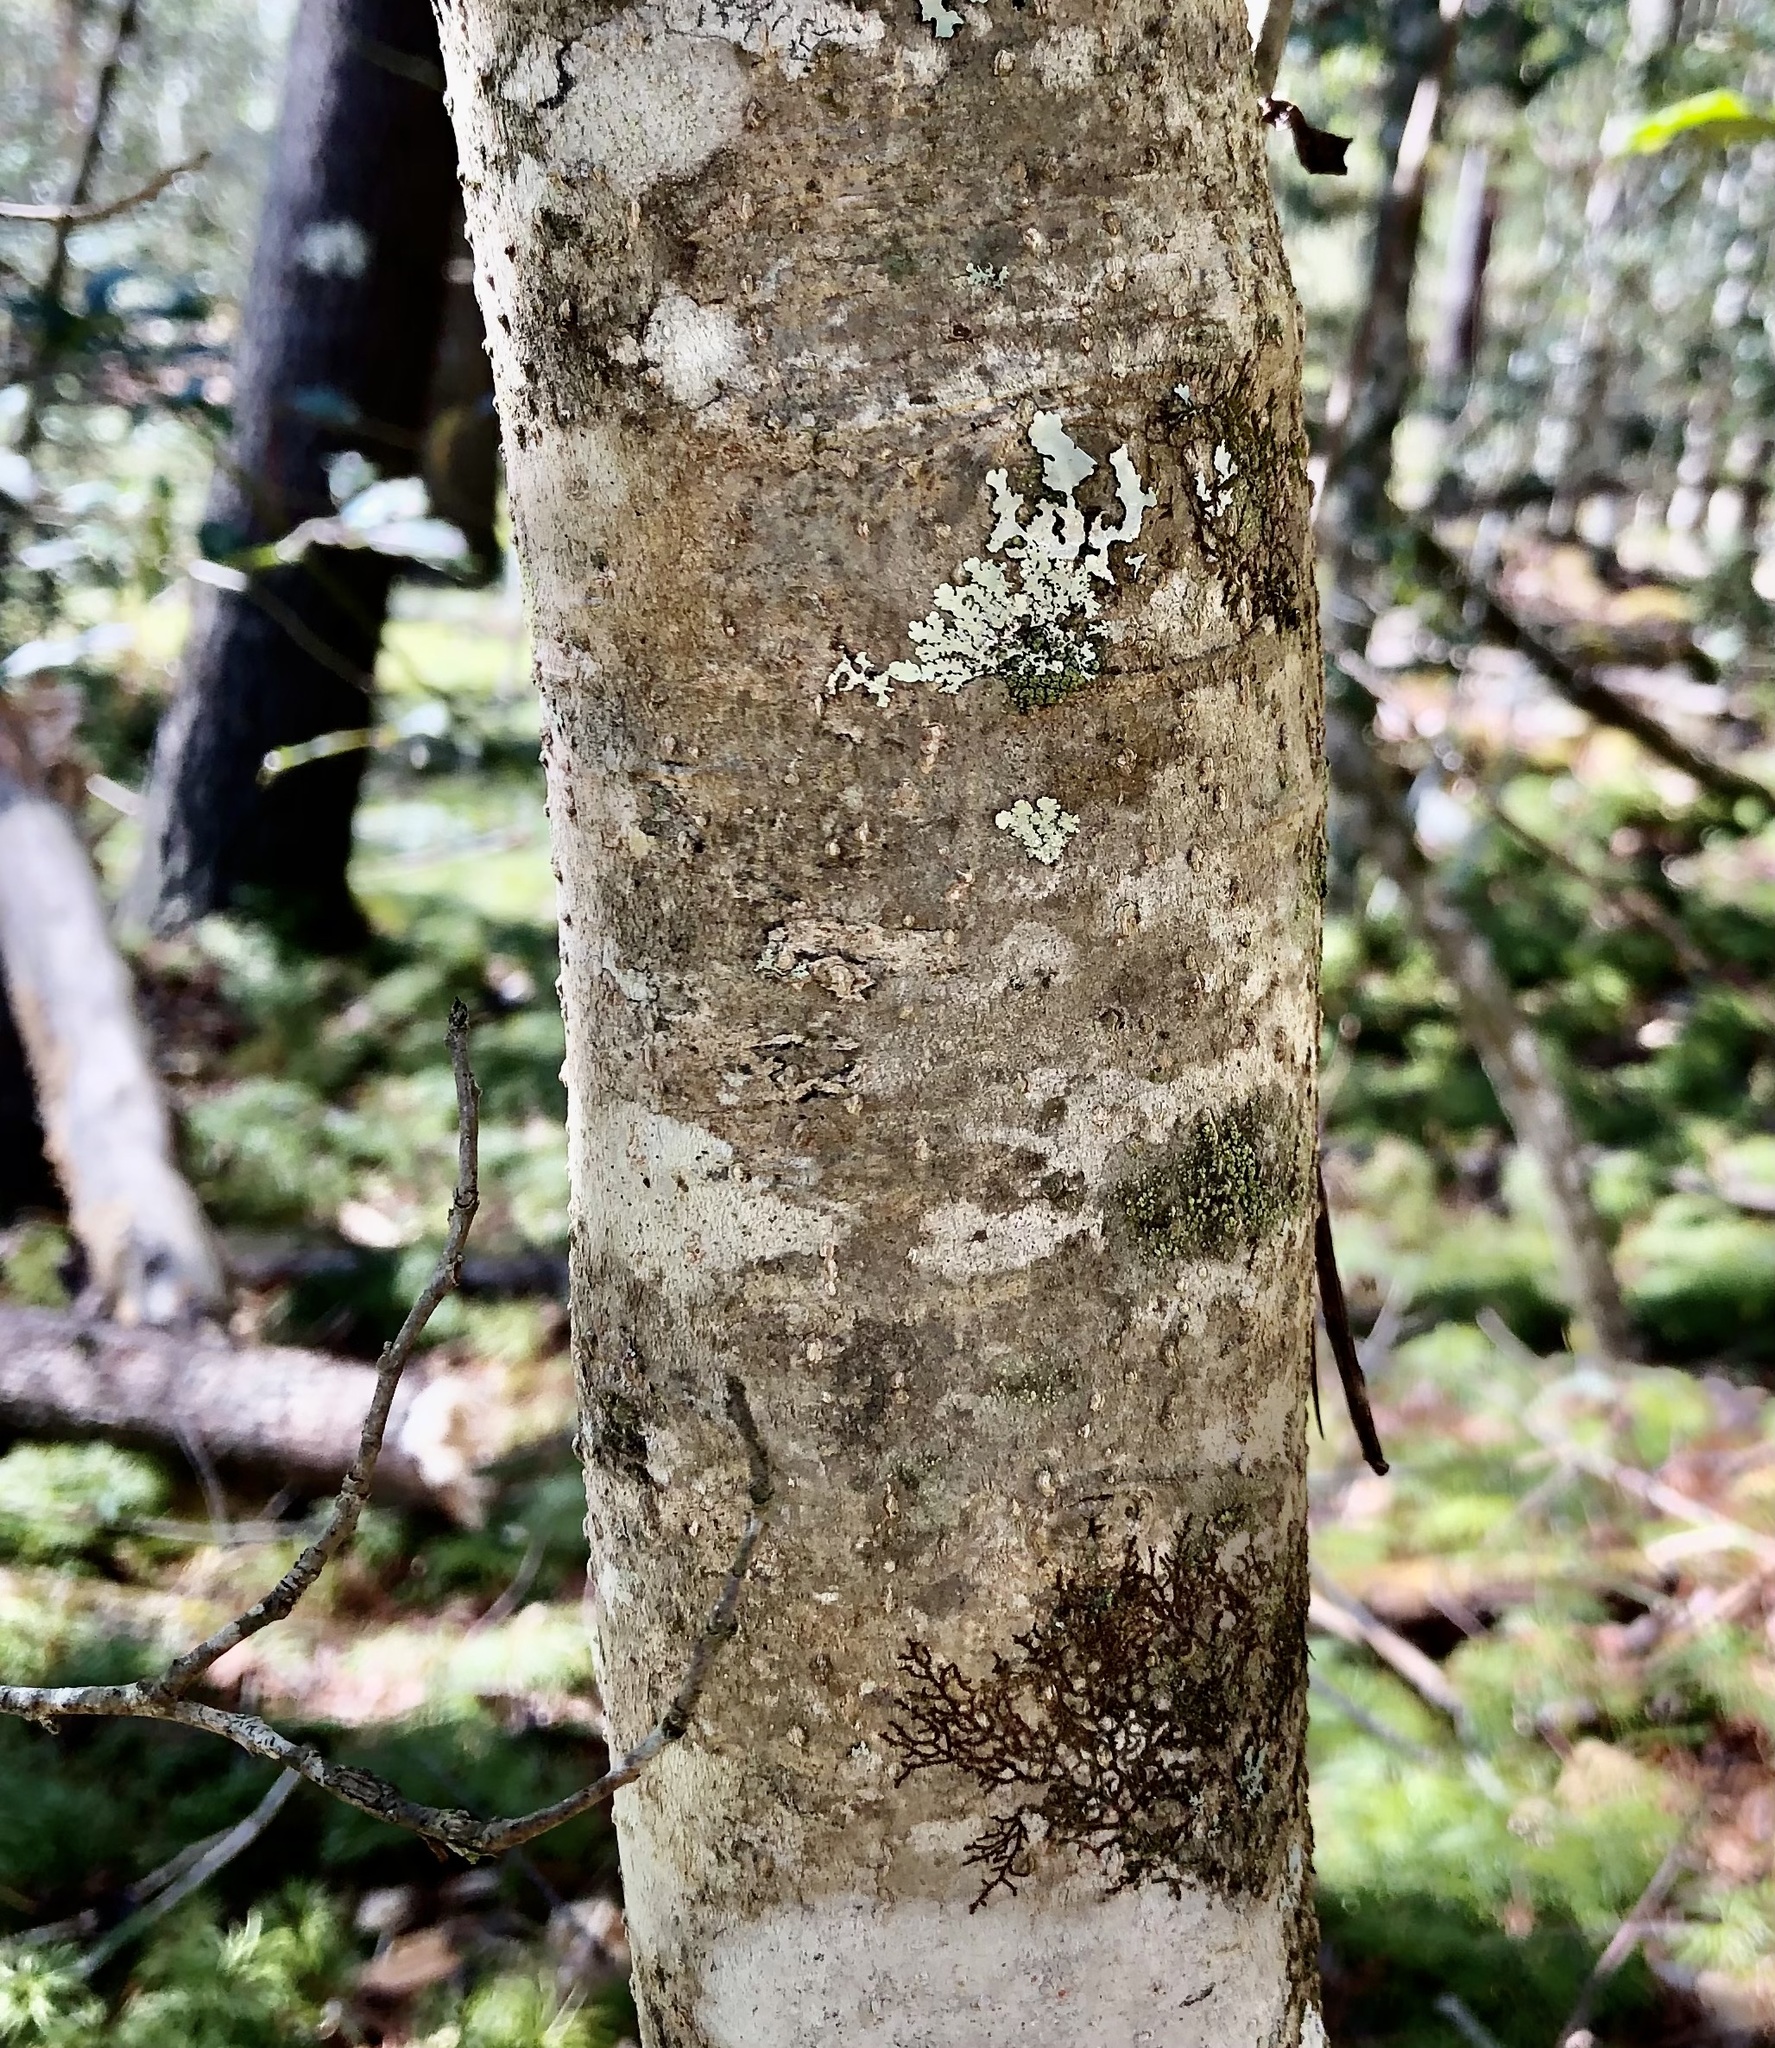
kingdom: Plantae
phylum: Tracheophyta
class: Magnoliopsida
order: Aquifoliales
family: Aquifoliaceae
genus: Ilex
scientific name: Ilex opaca
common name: American holly
